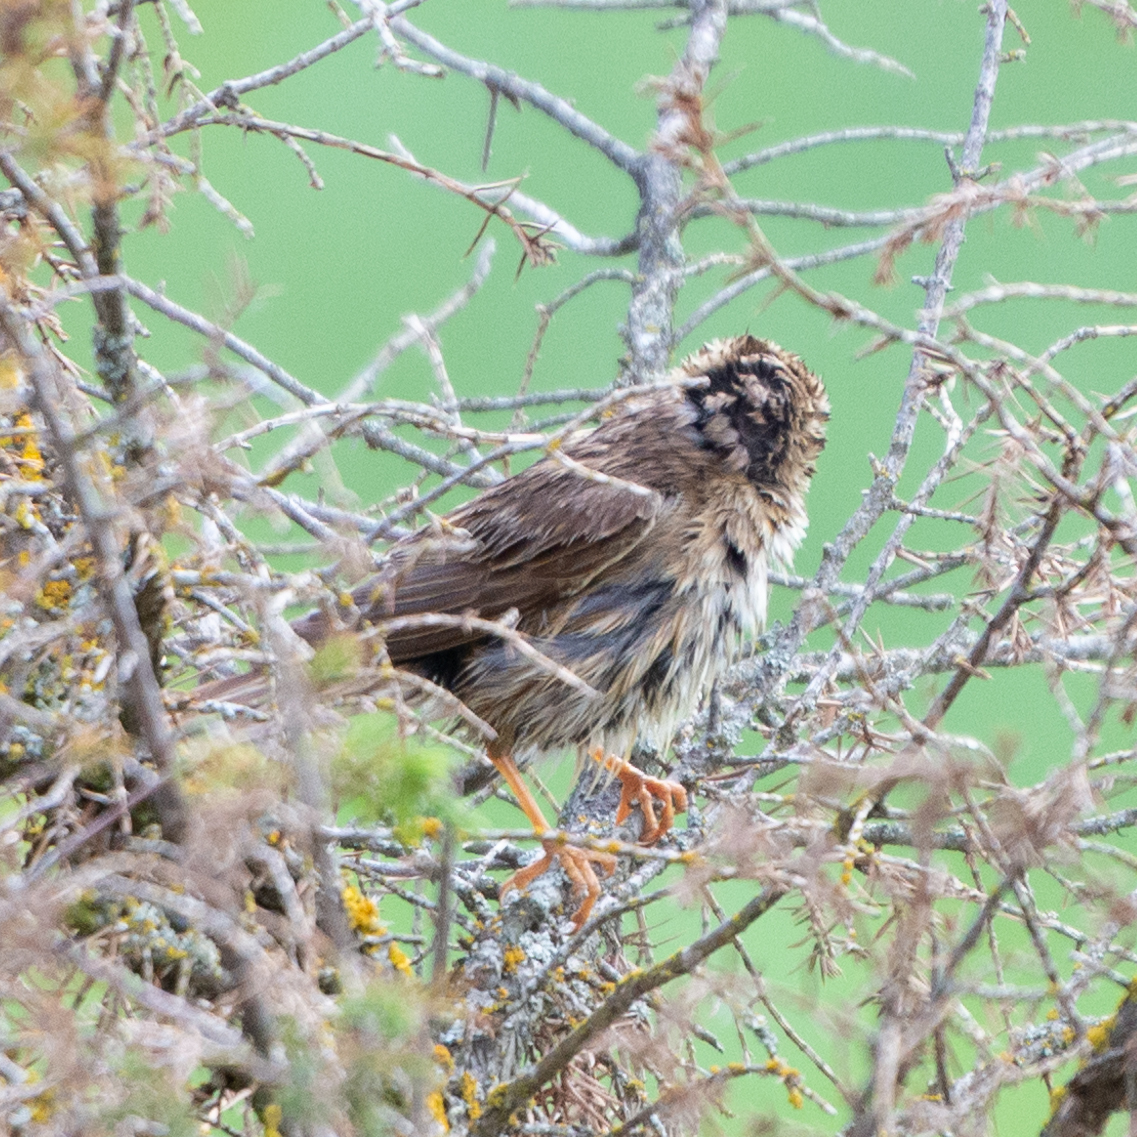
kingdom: Animalia
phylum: Chordata
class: Aves
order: Passeriformes
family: Emberizidae
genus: Emberiza
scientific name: Emberiza calandra
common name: Corn bunting
